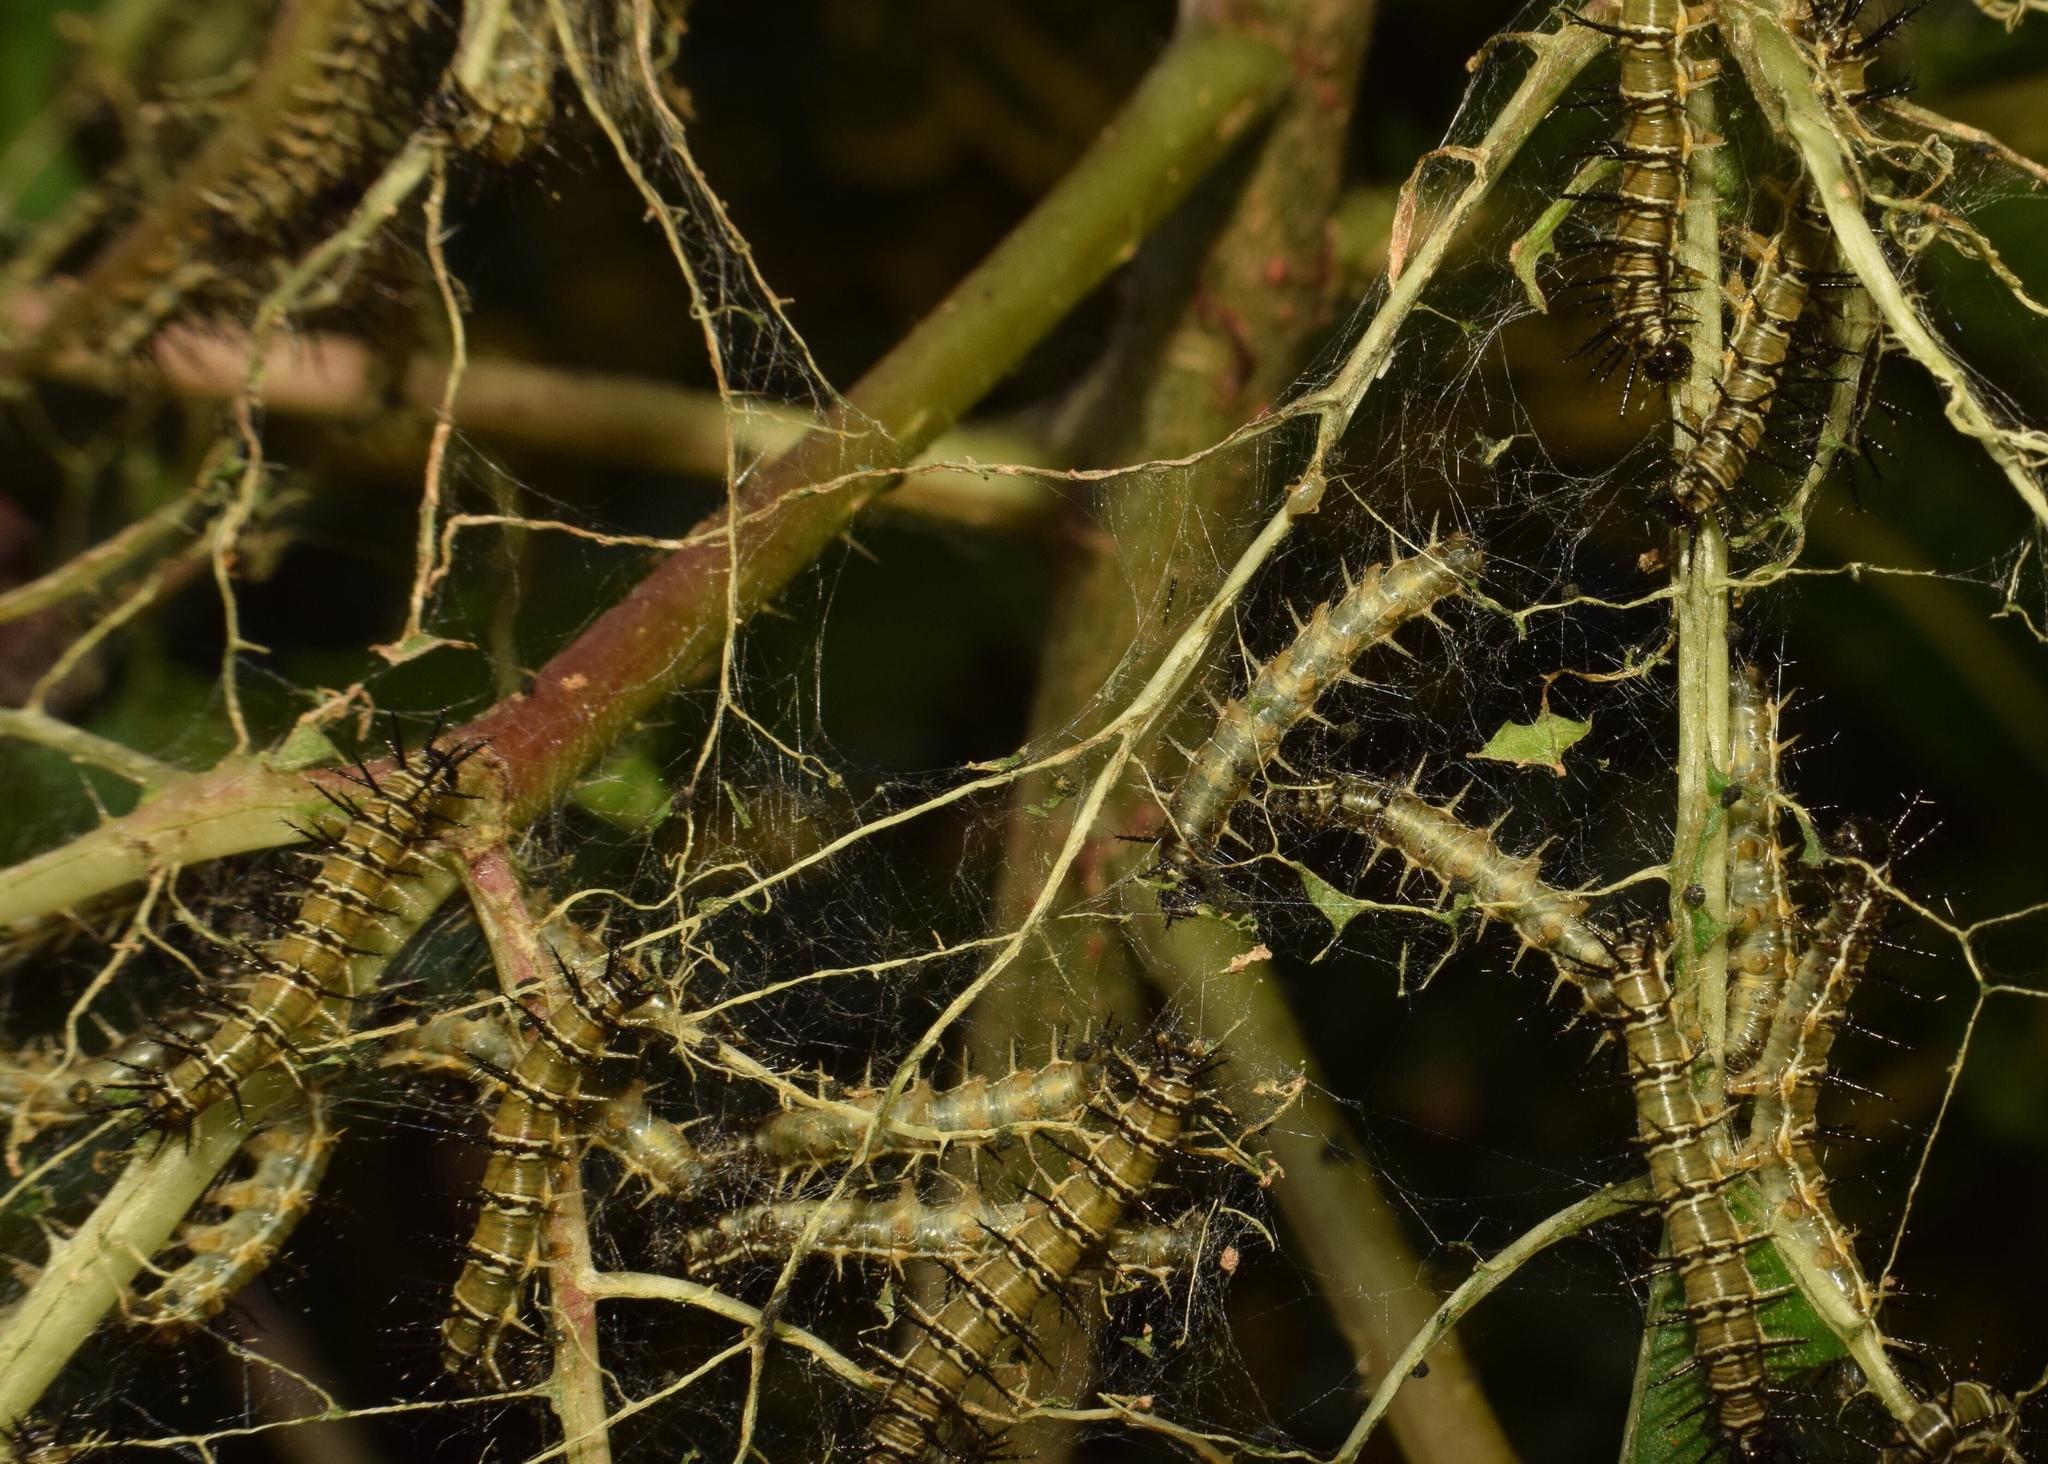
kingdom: Animalia
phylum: Arthropoda
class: Insecta
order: Lepidoptera
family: Nymphalidae
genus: Acraea
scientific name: Acraea esebria
